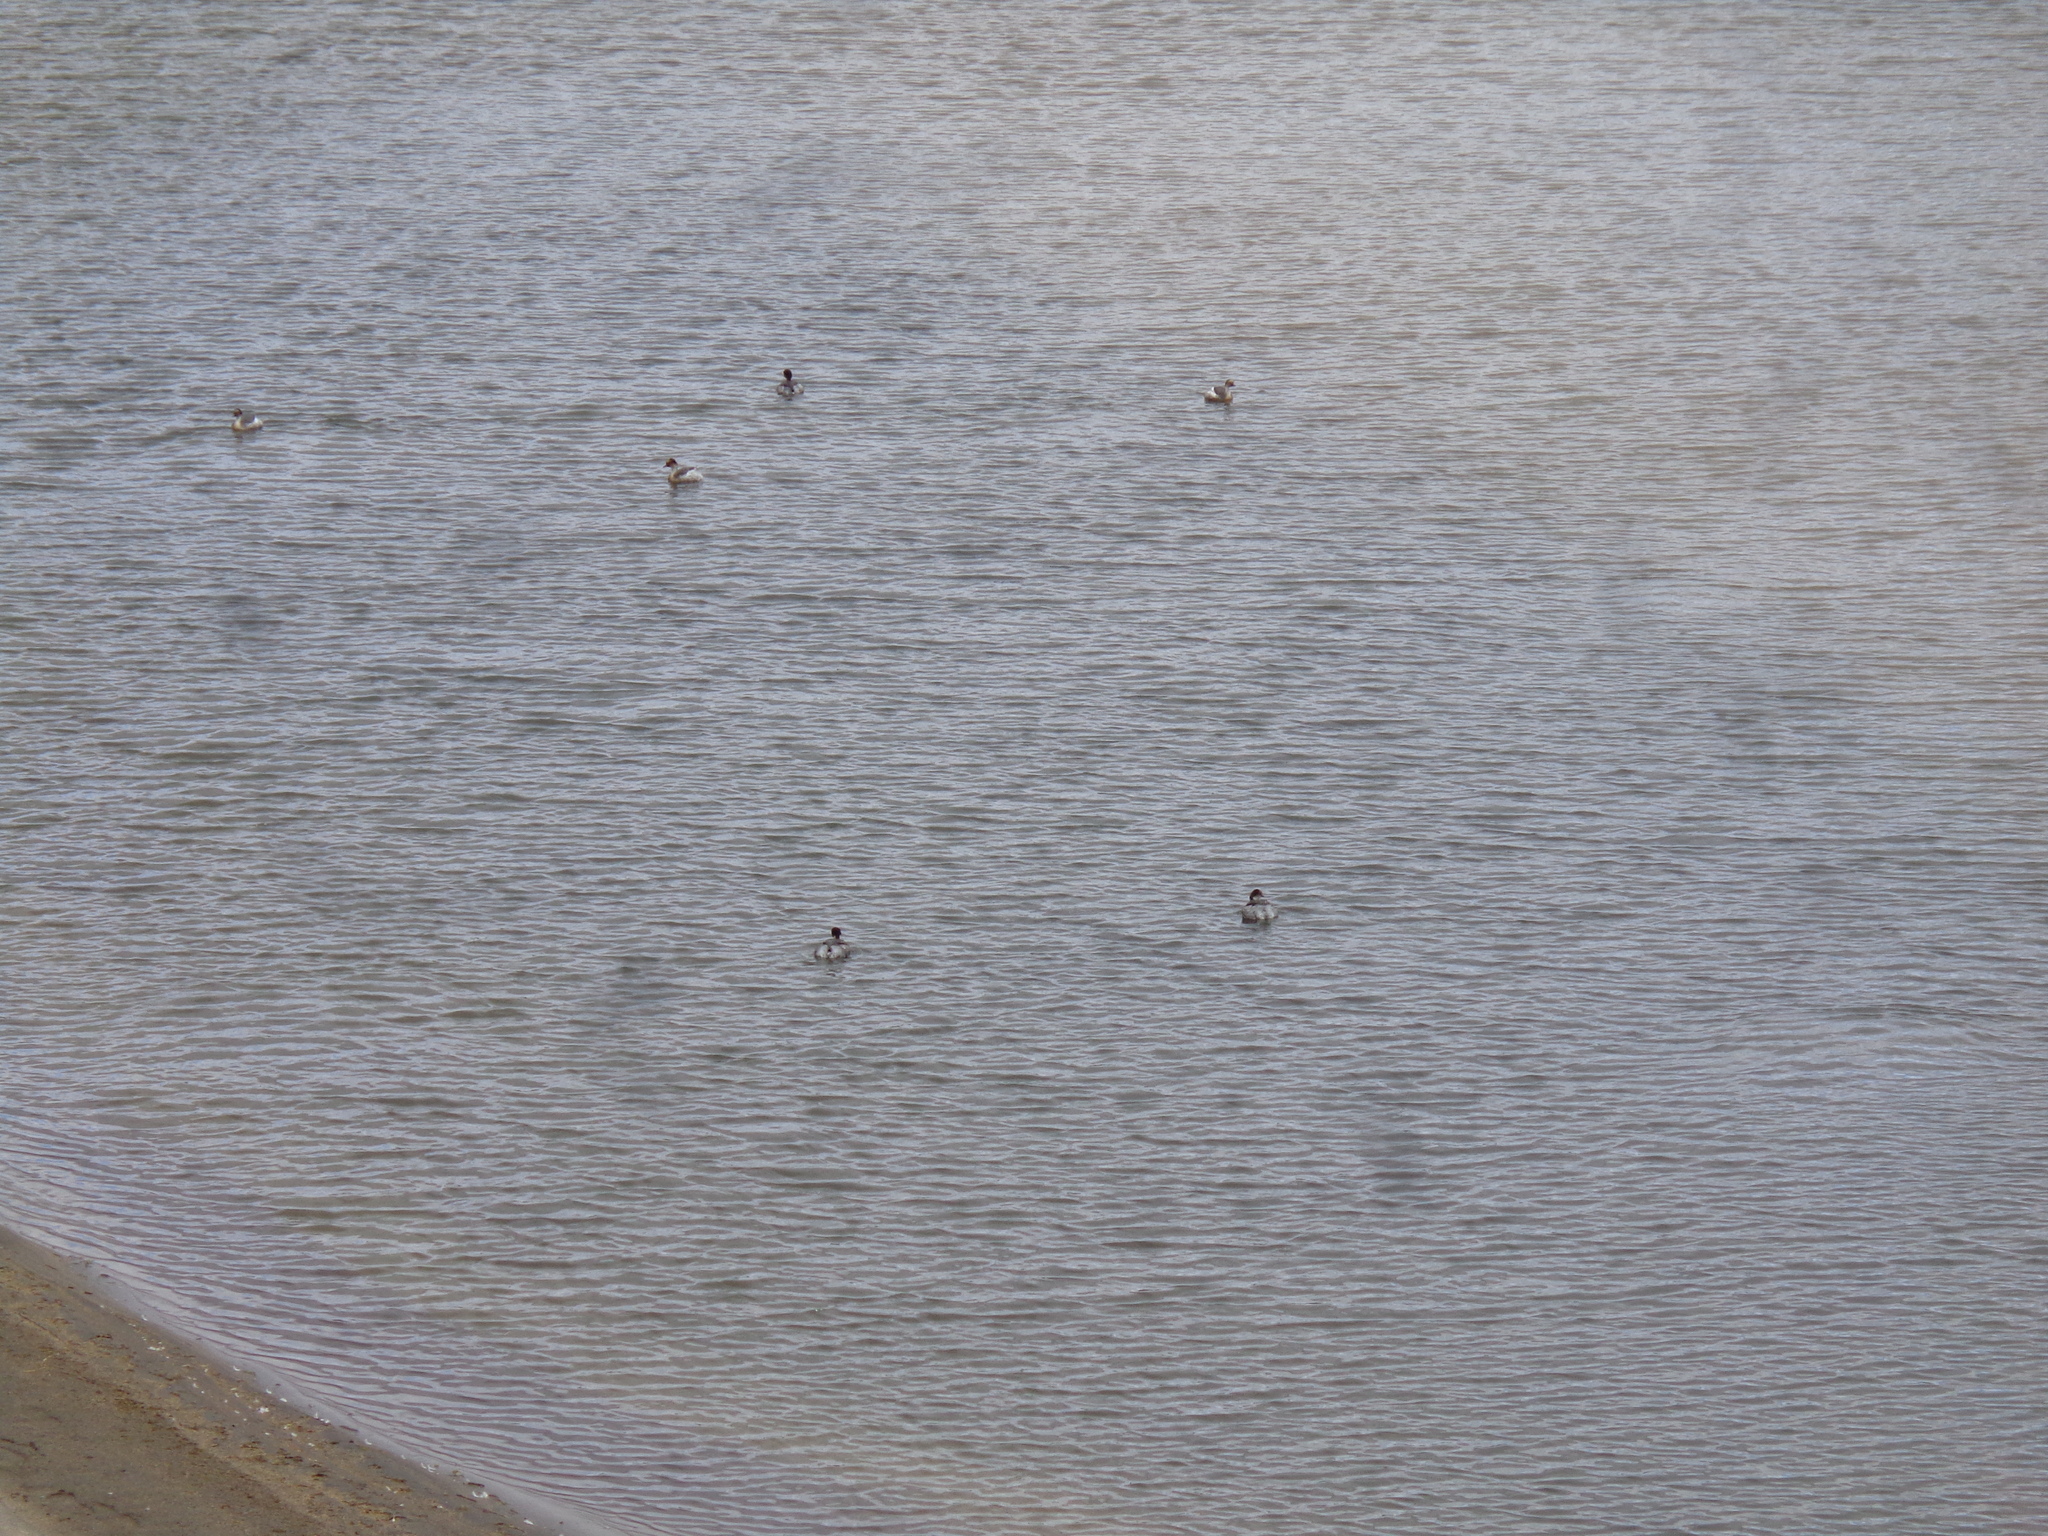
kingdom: Animalia
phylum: Chordata
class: Aves
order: Podicipediformes
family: Podicipedidae
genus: Podiceps
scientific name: Podiceps occipitalis
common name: Silvery grebe
